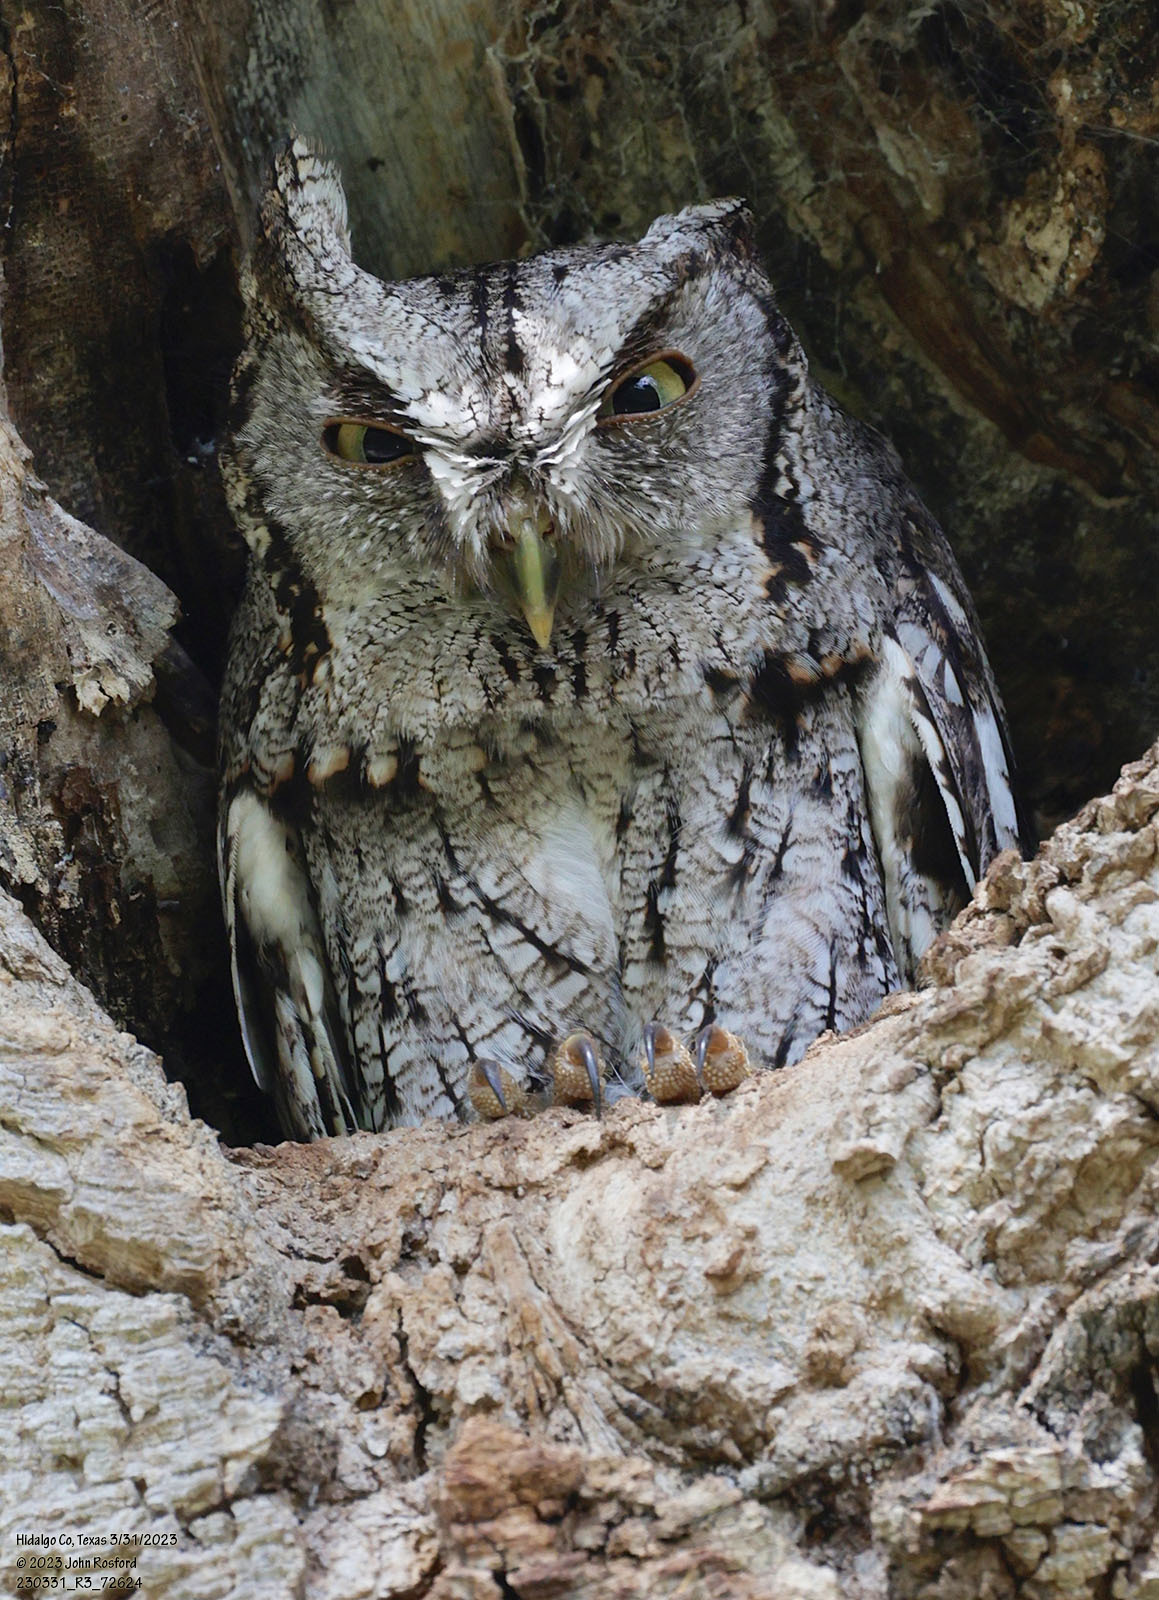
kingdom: Animalia
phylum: Chordata
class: Aves
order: Strigiformes
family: Strigidae
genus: Megascops
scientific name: Megascops asio
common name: Eastern screech-owl
